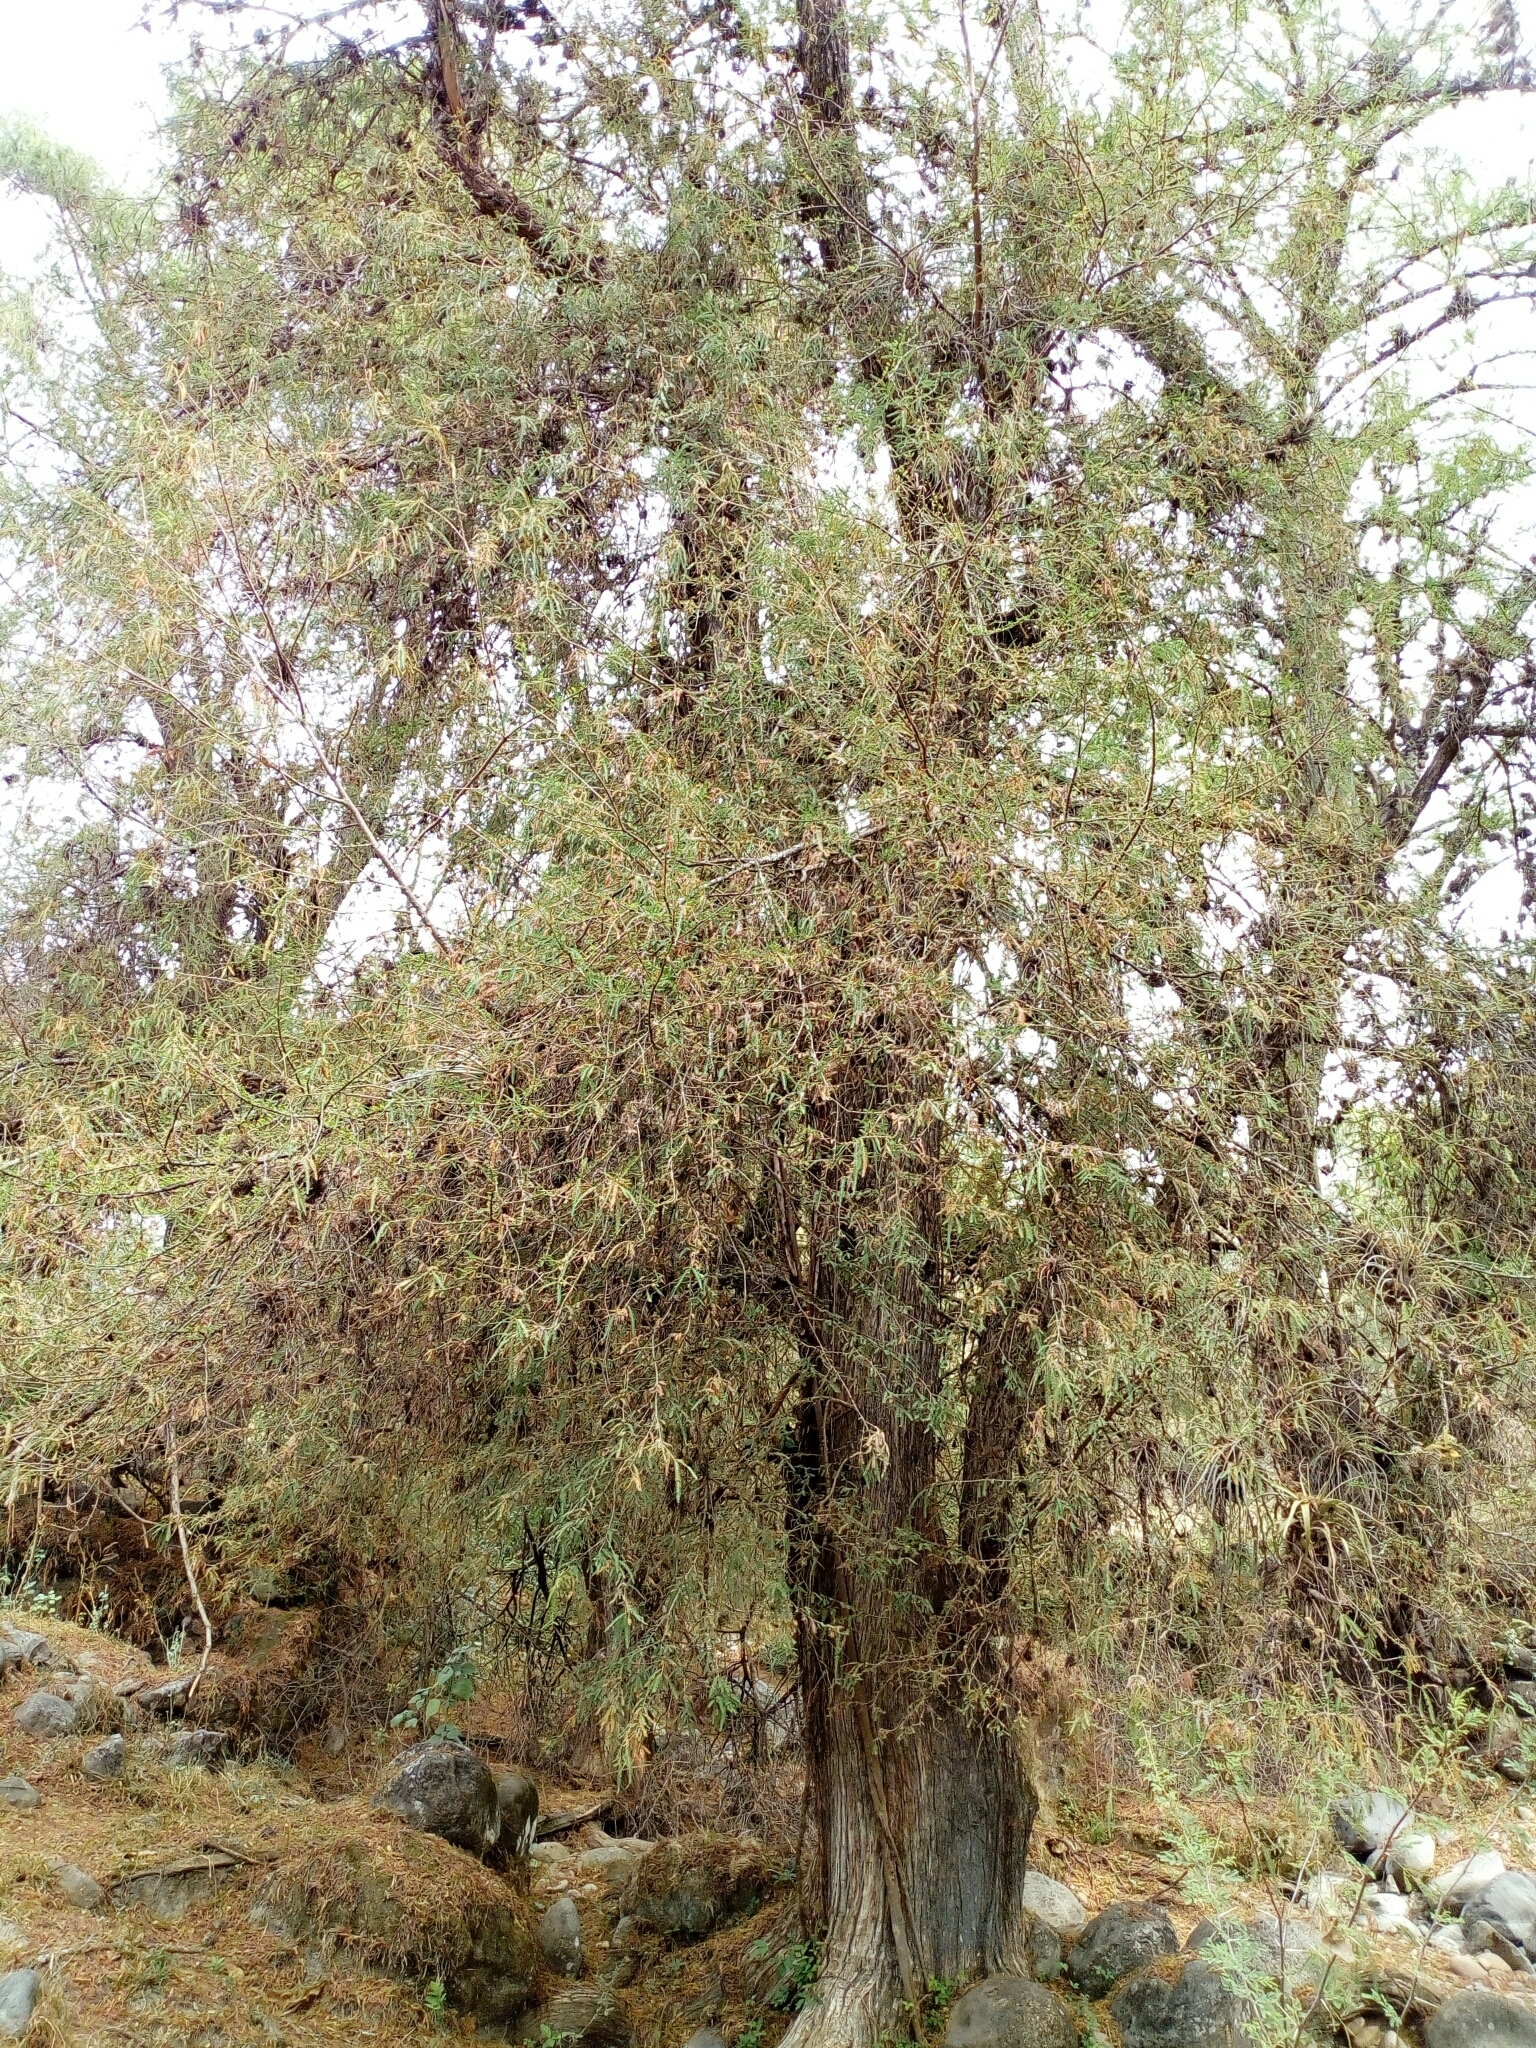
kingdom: Plantae
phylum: Tracheophyta
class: Pinopsida
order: Pinales
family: Cupressaceae
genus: Taxodium
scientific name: Taxodium mucronatum
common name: Montezume bald cypress
